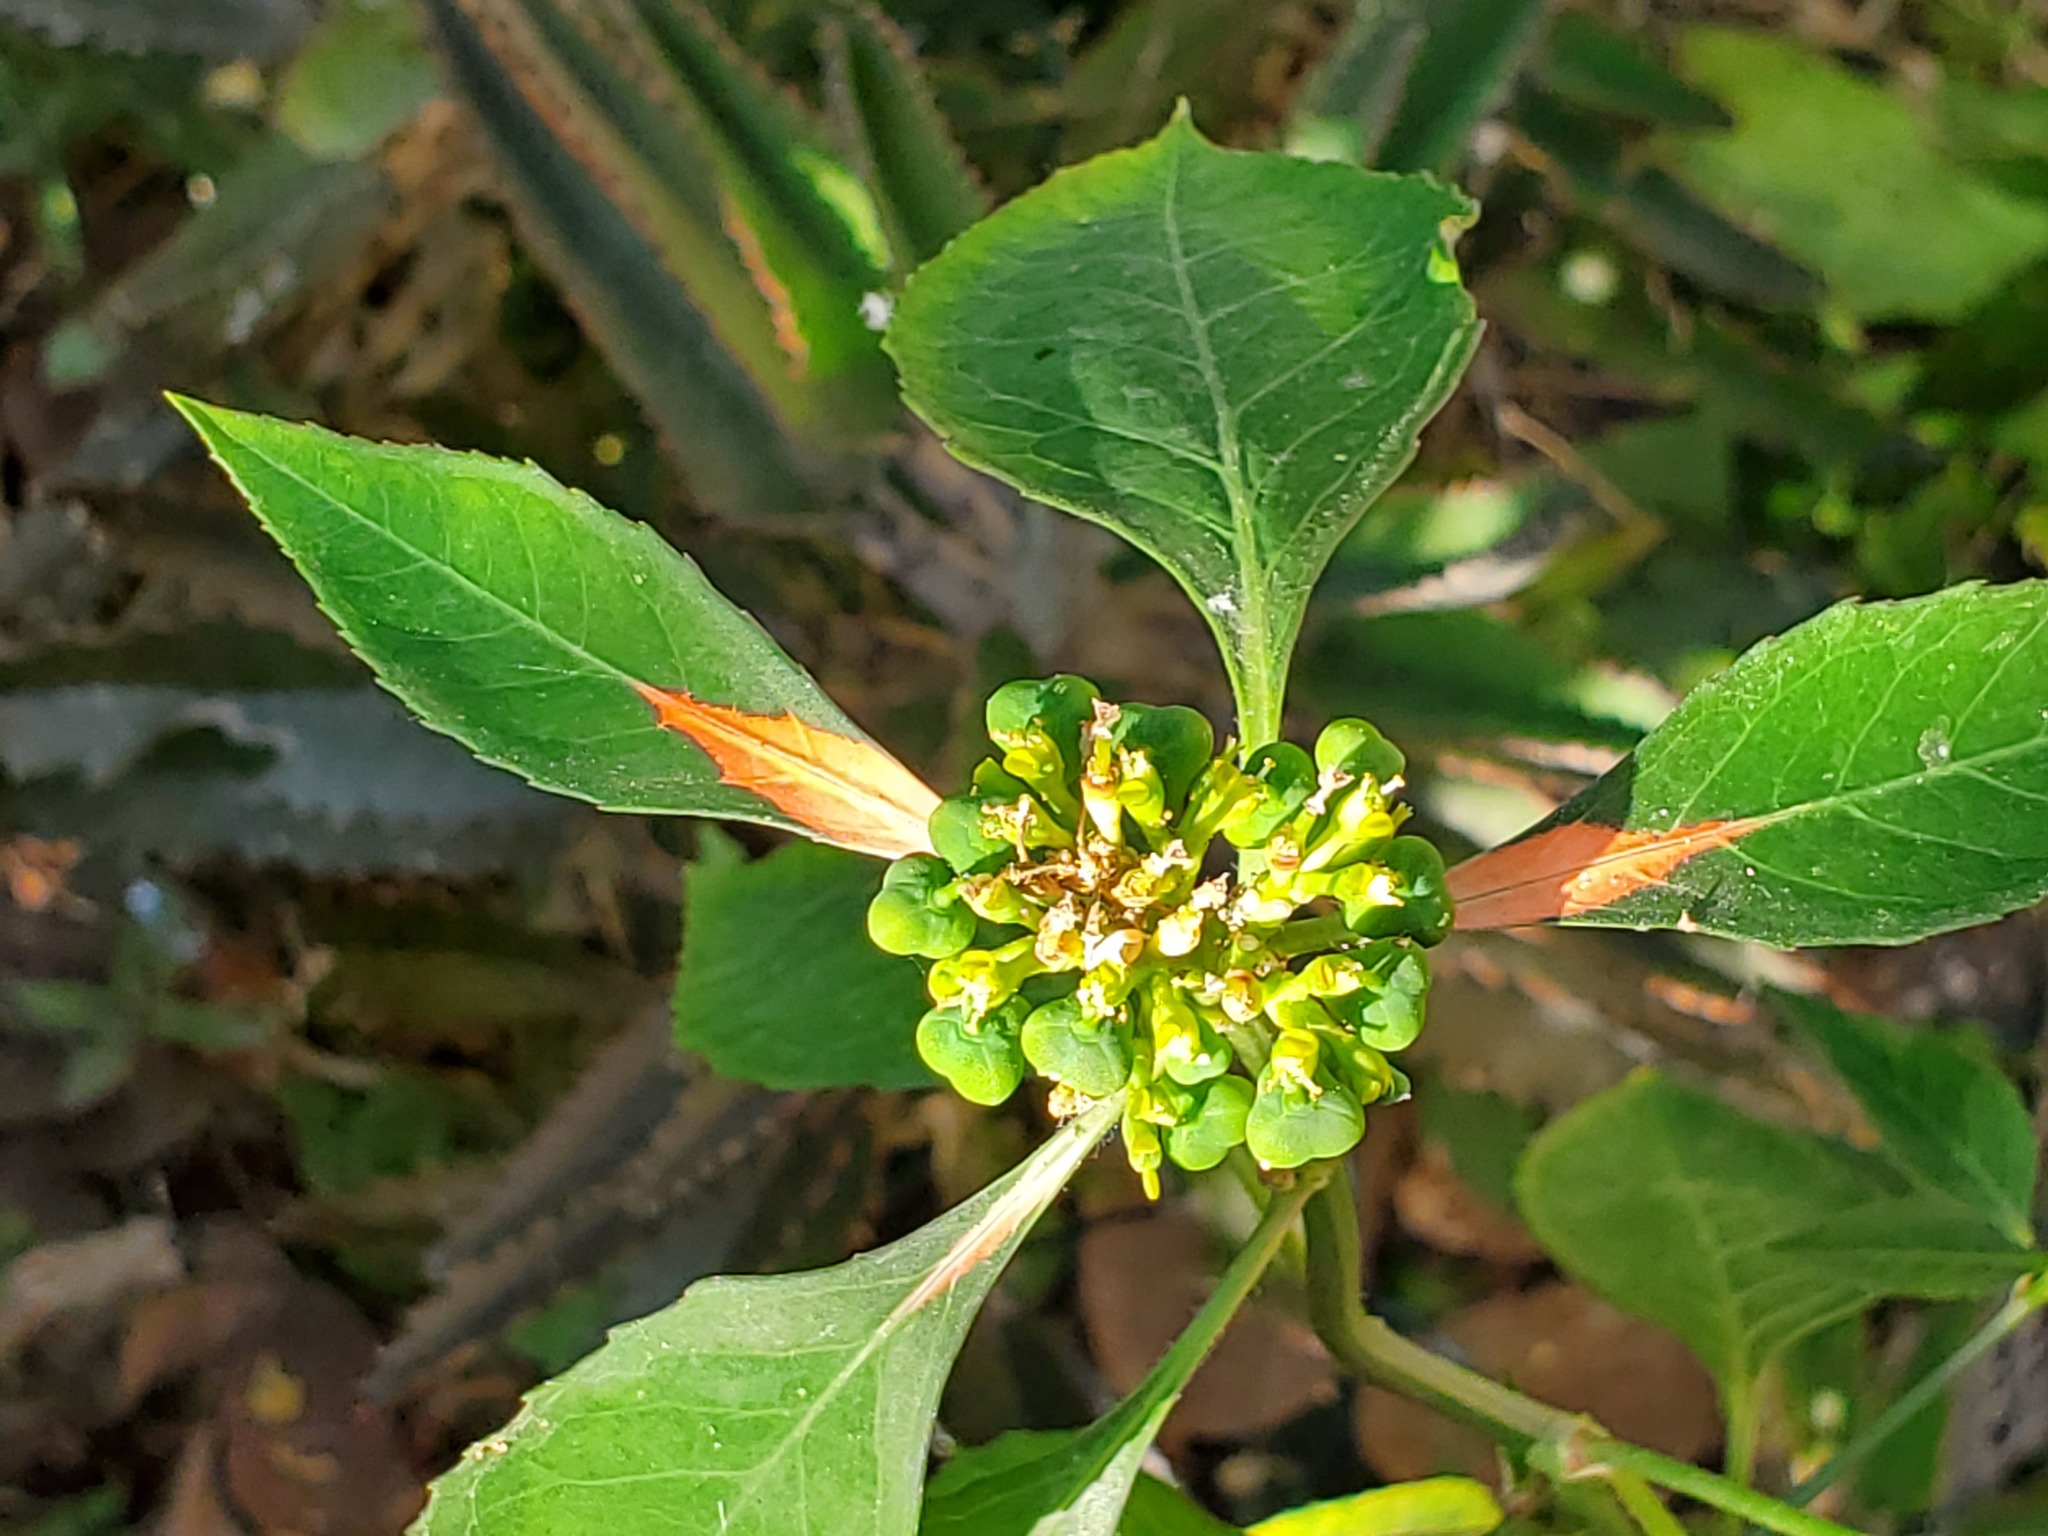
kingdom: Plantae
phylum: Tracheophyta
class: Magnoliopsida
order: Malpighiales
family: Euphorbiaceae
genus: Euphorbia
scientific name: Euphorbia heterophylla
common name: Mexican fireplant
